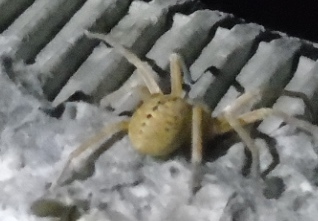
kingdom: Animalia
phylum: Arthropoda
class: Arachnida
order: Araneae
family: Sparassidae
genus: Curicaberis
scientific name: Curicaberis culiacan
